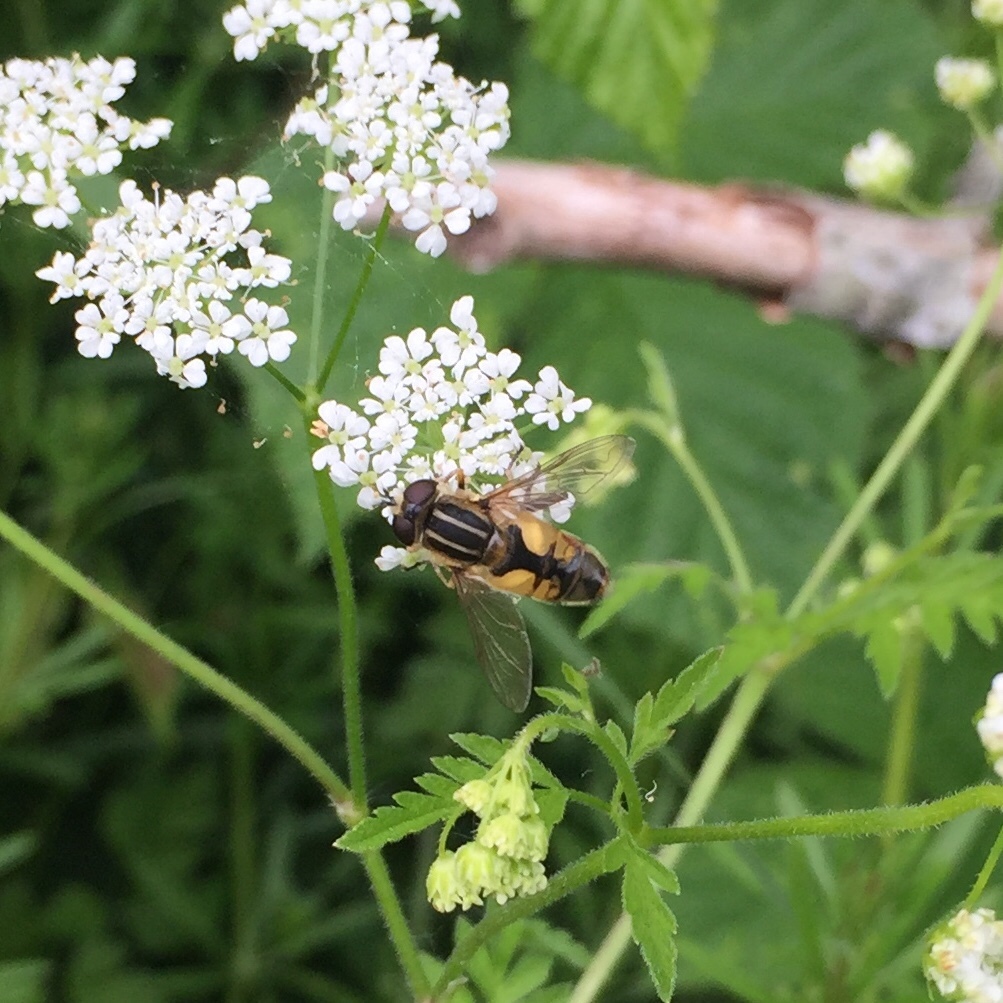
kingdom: Animalia
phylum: Arthropoda
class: Insecta
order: Diptera
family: Syrphidae
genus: Helophilus
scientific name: Helophilus hybridus
